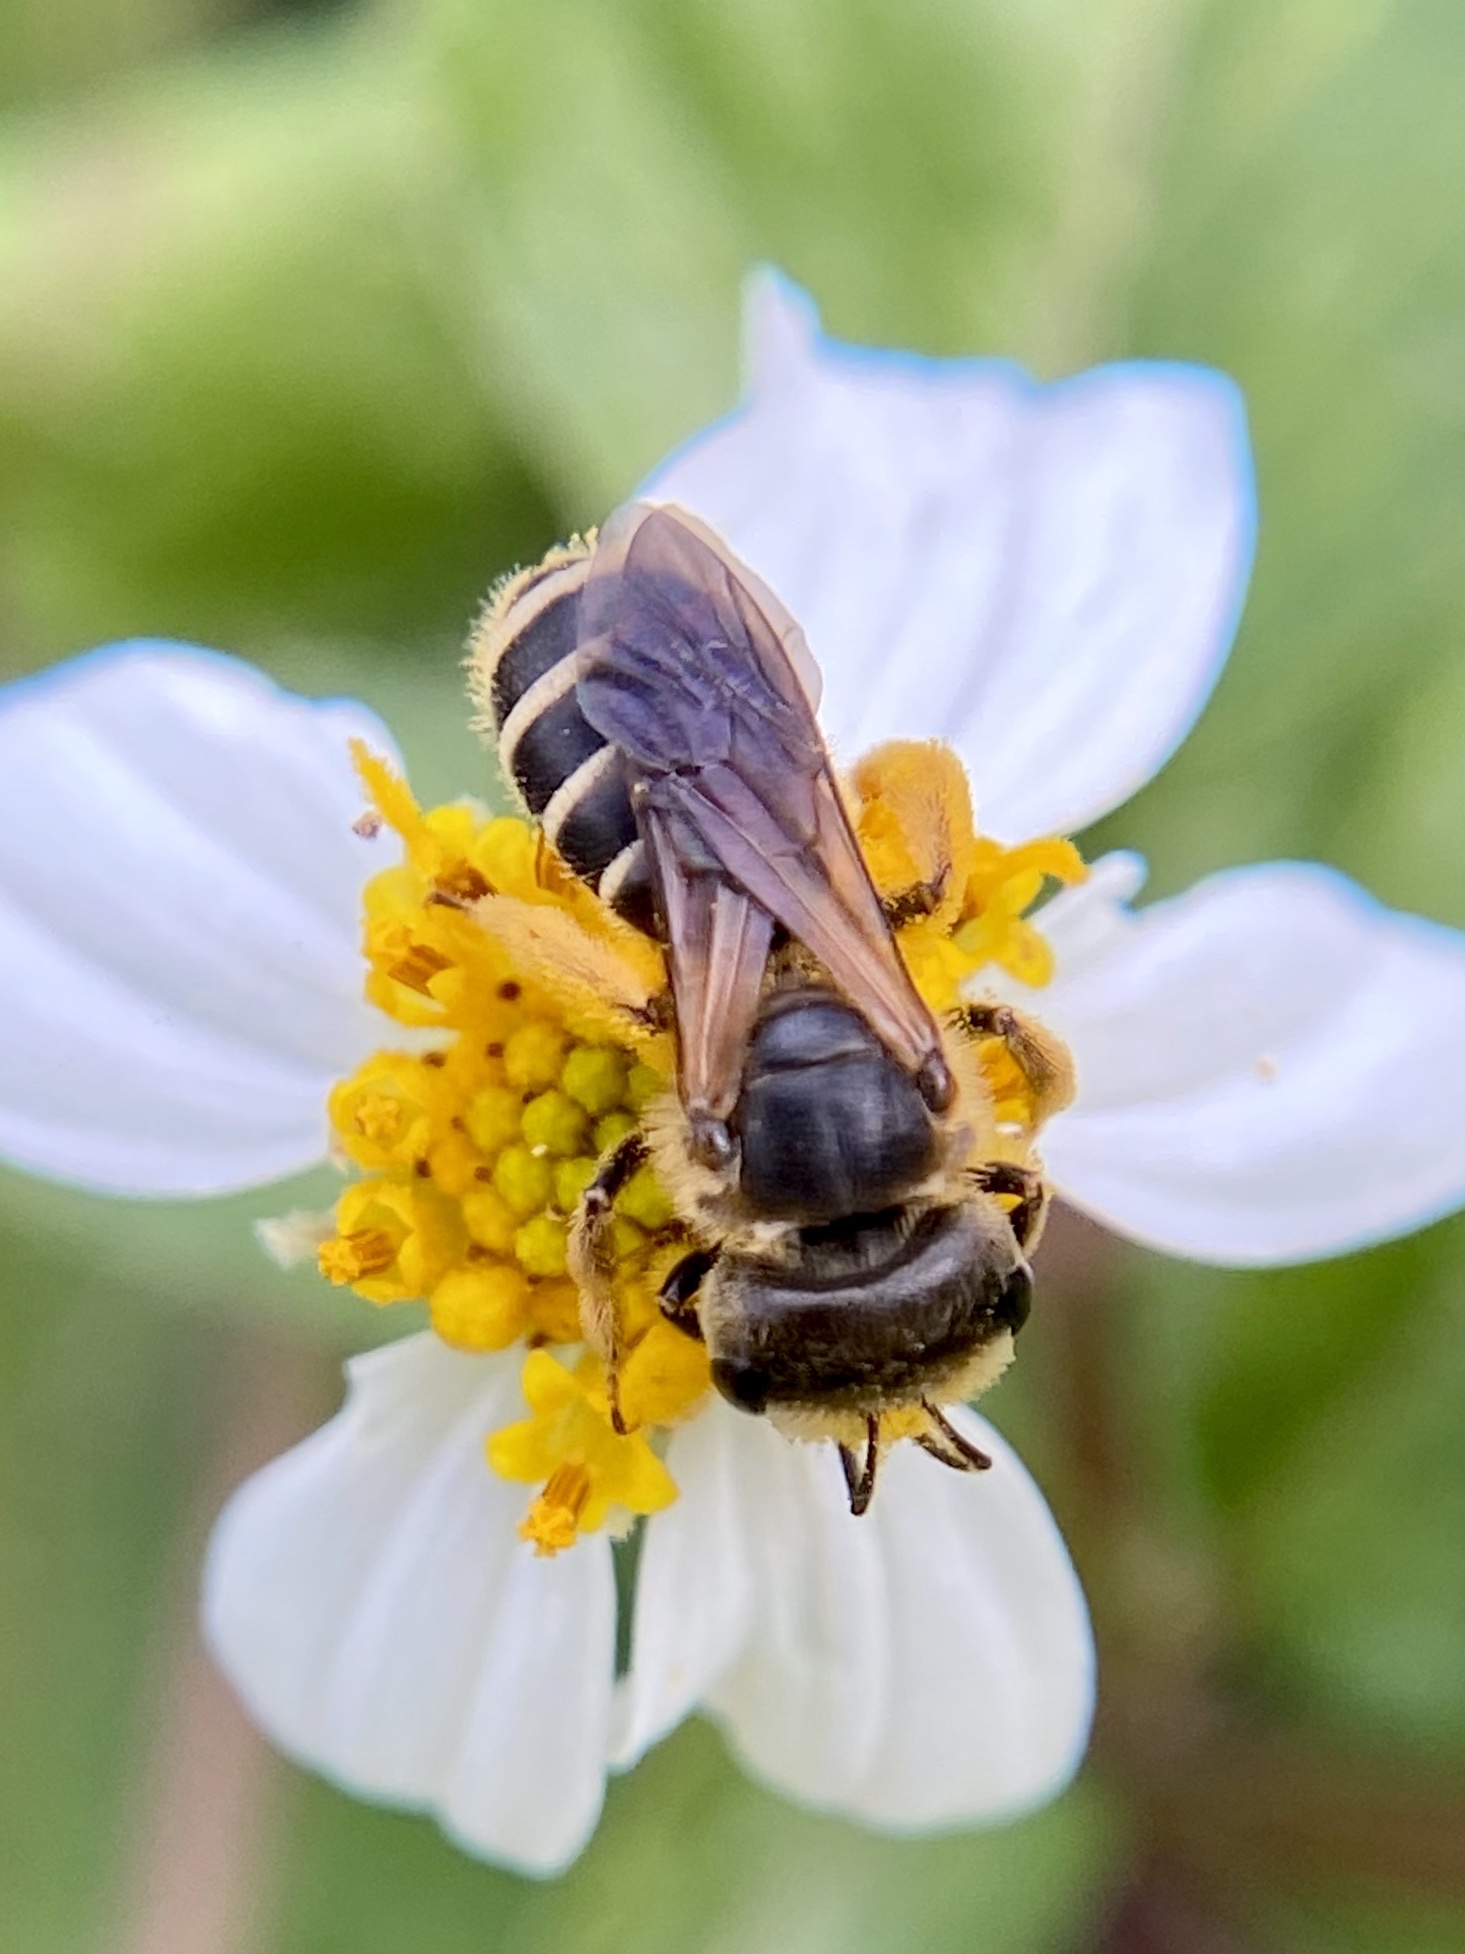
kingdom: Animalia
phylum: Arthropoda
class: Insecta
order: Hymenoptera
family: Halictidae
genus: Halictus
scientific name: Halictus poeyi
